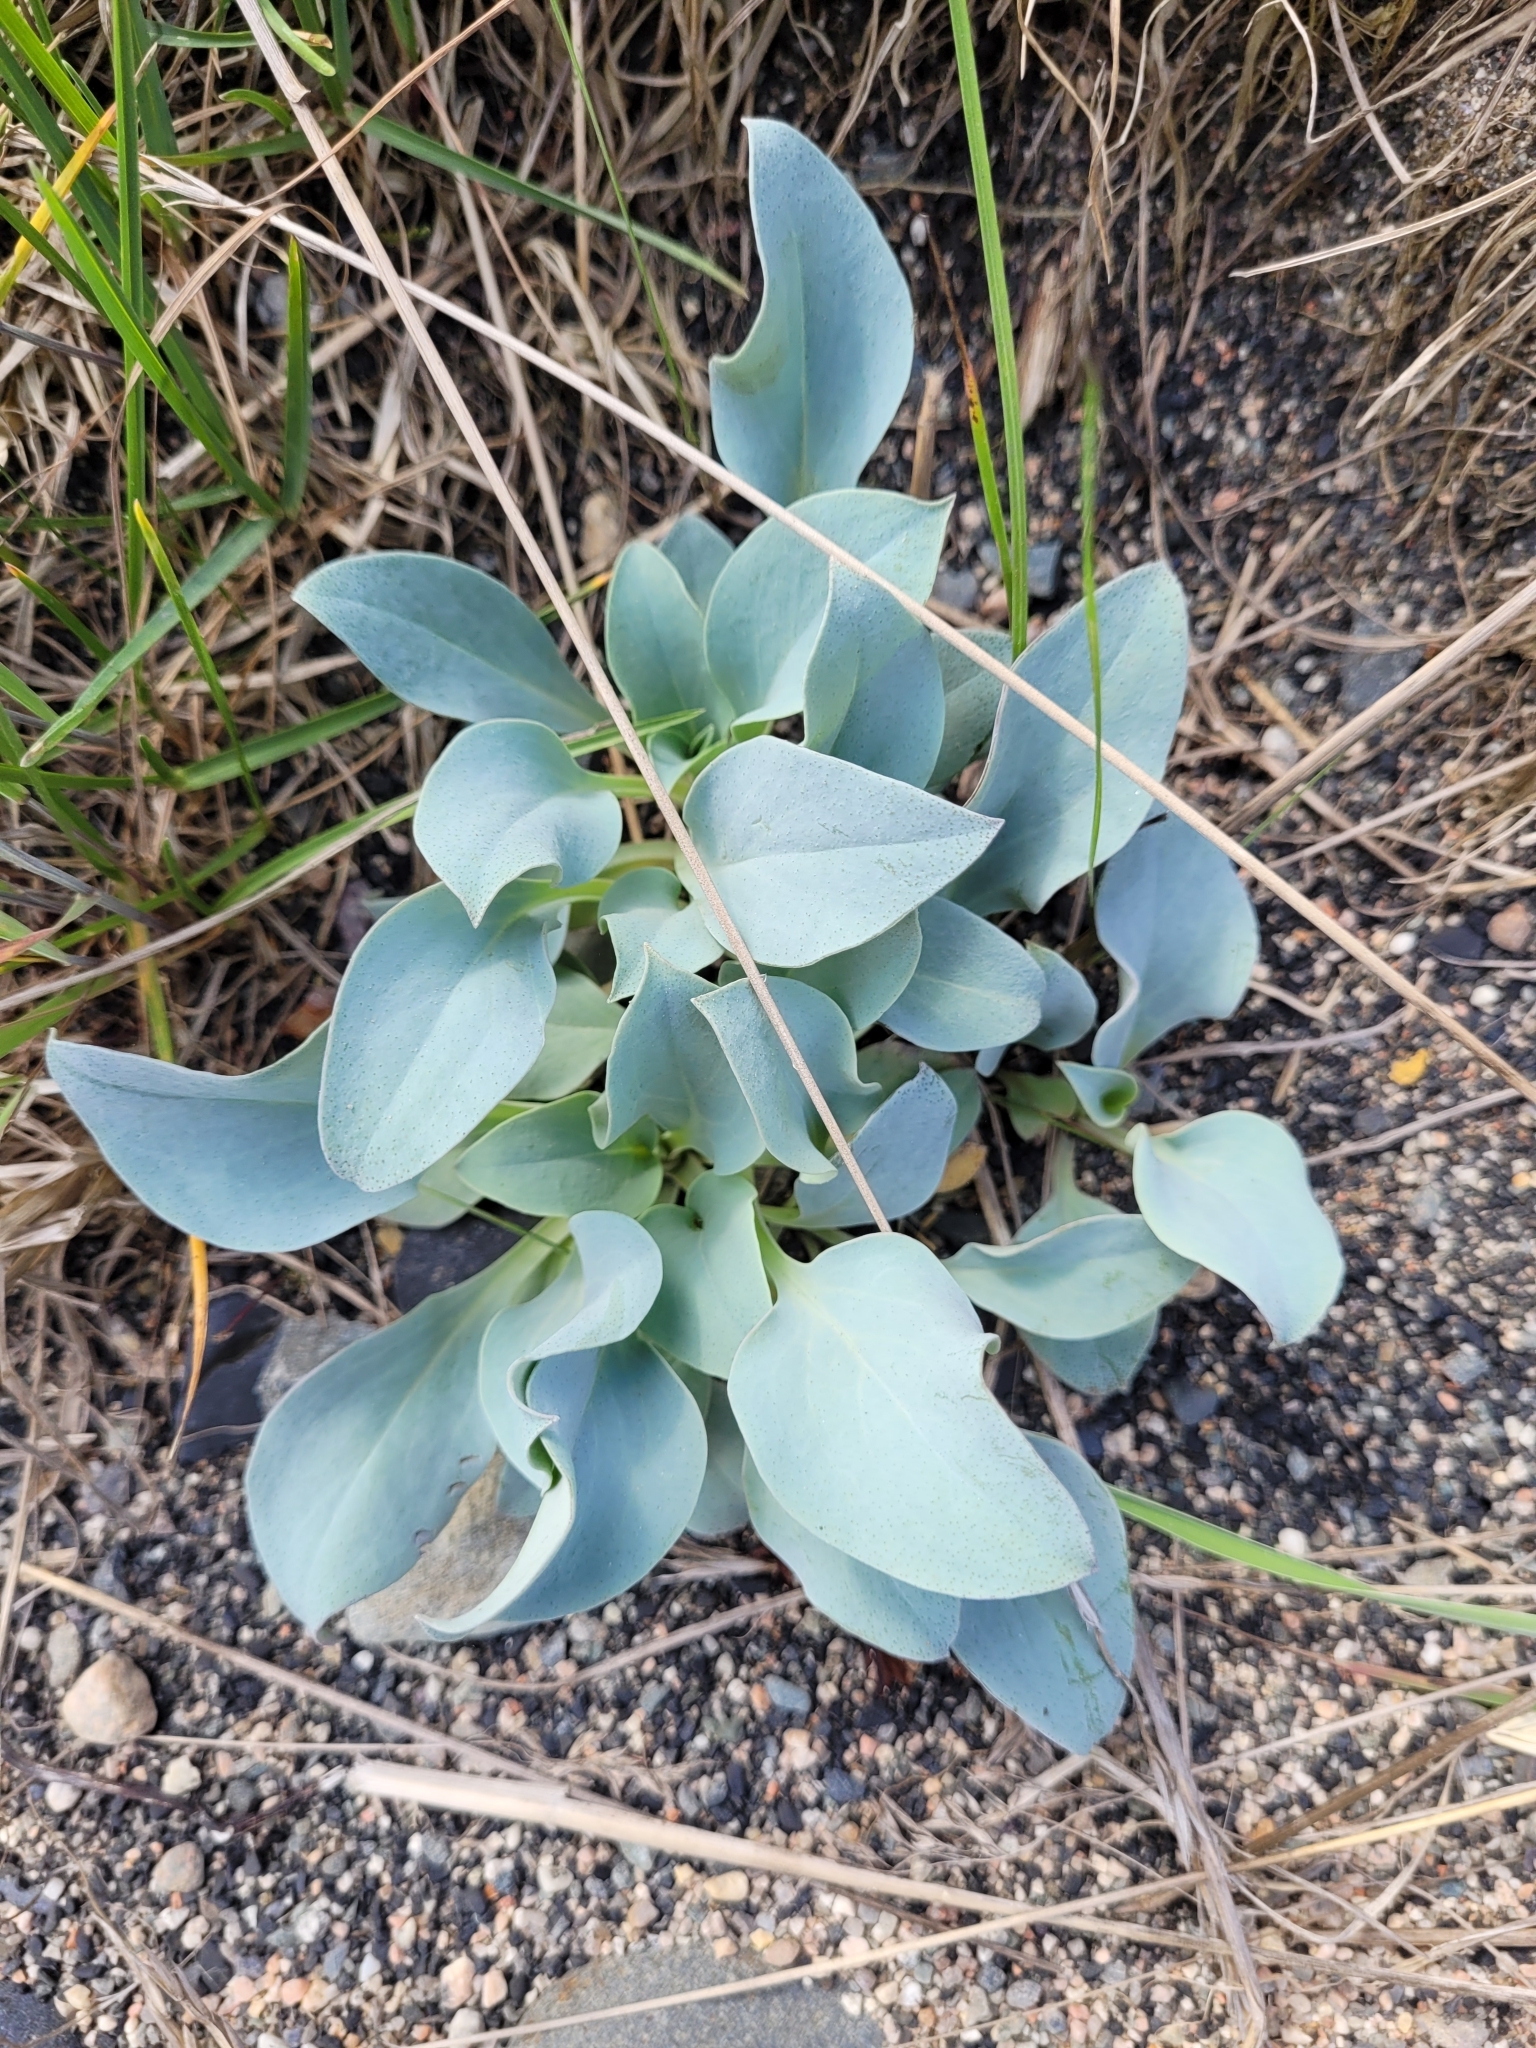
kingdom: Plantae
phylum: Tracheophyta
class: Magnoliopsida
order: Boraginales
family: Boraginaceae
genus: Mertensia
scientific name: Mertensia maritima
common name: Oysterplant
